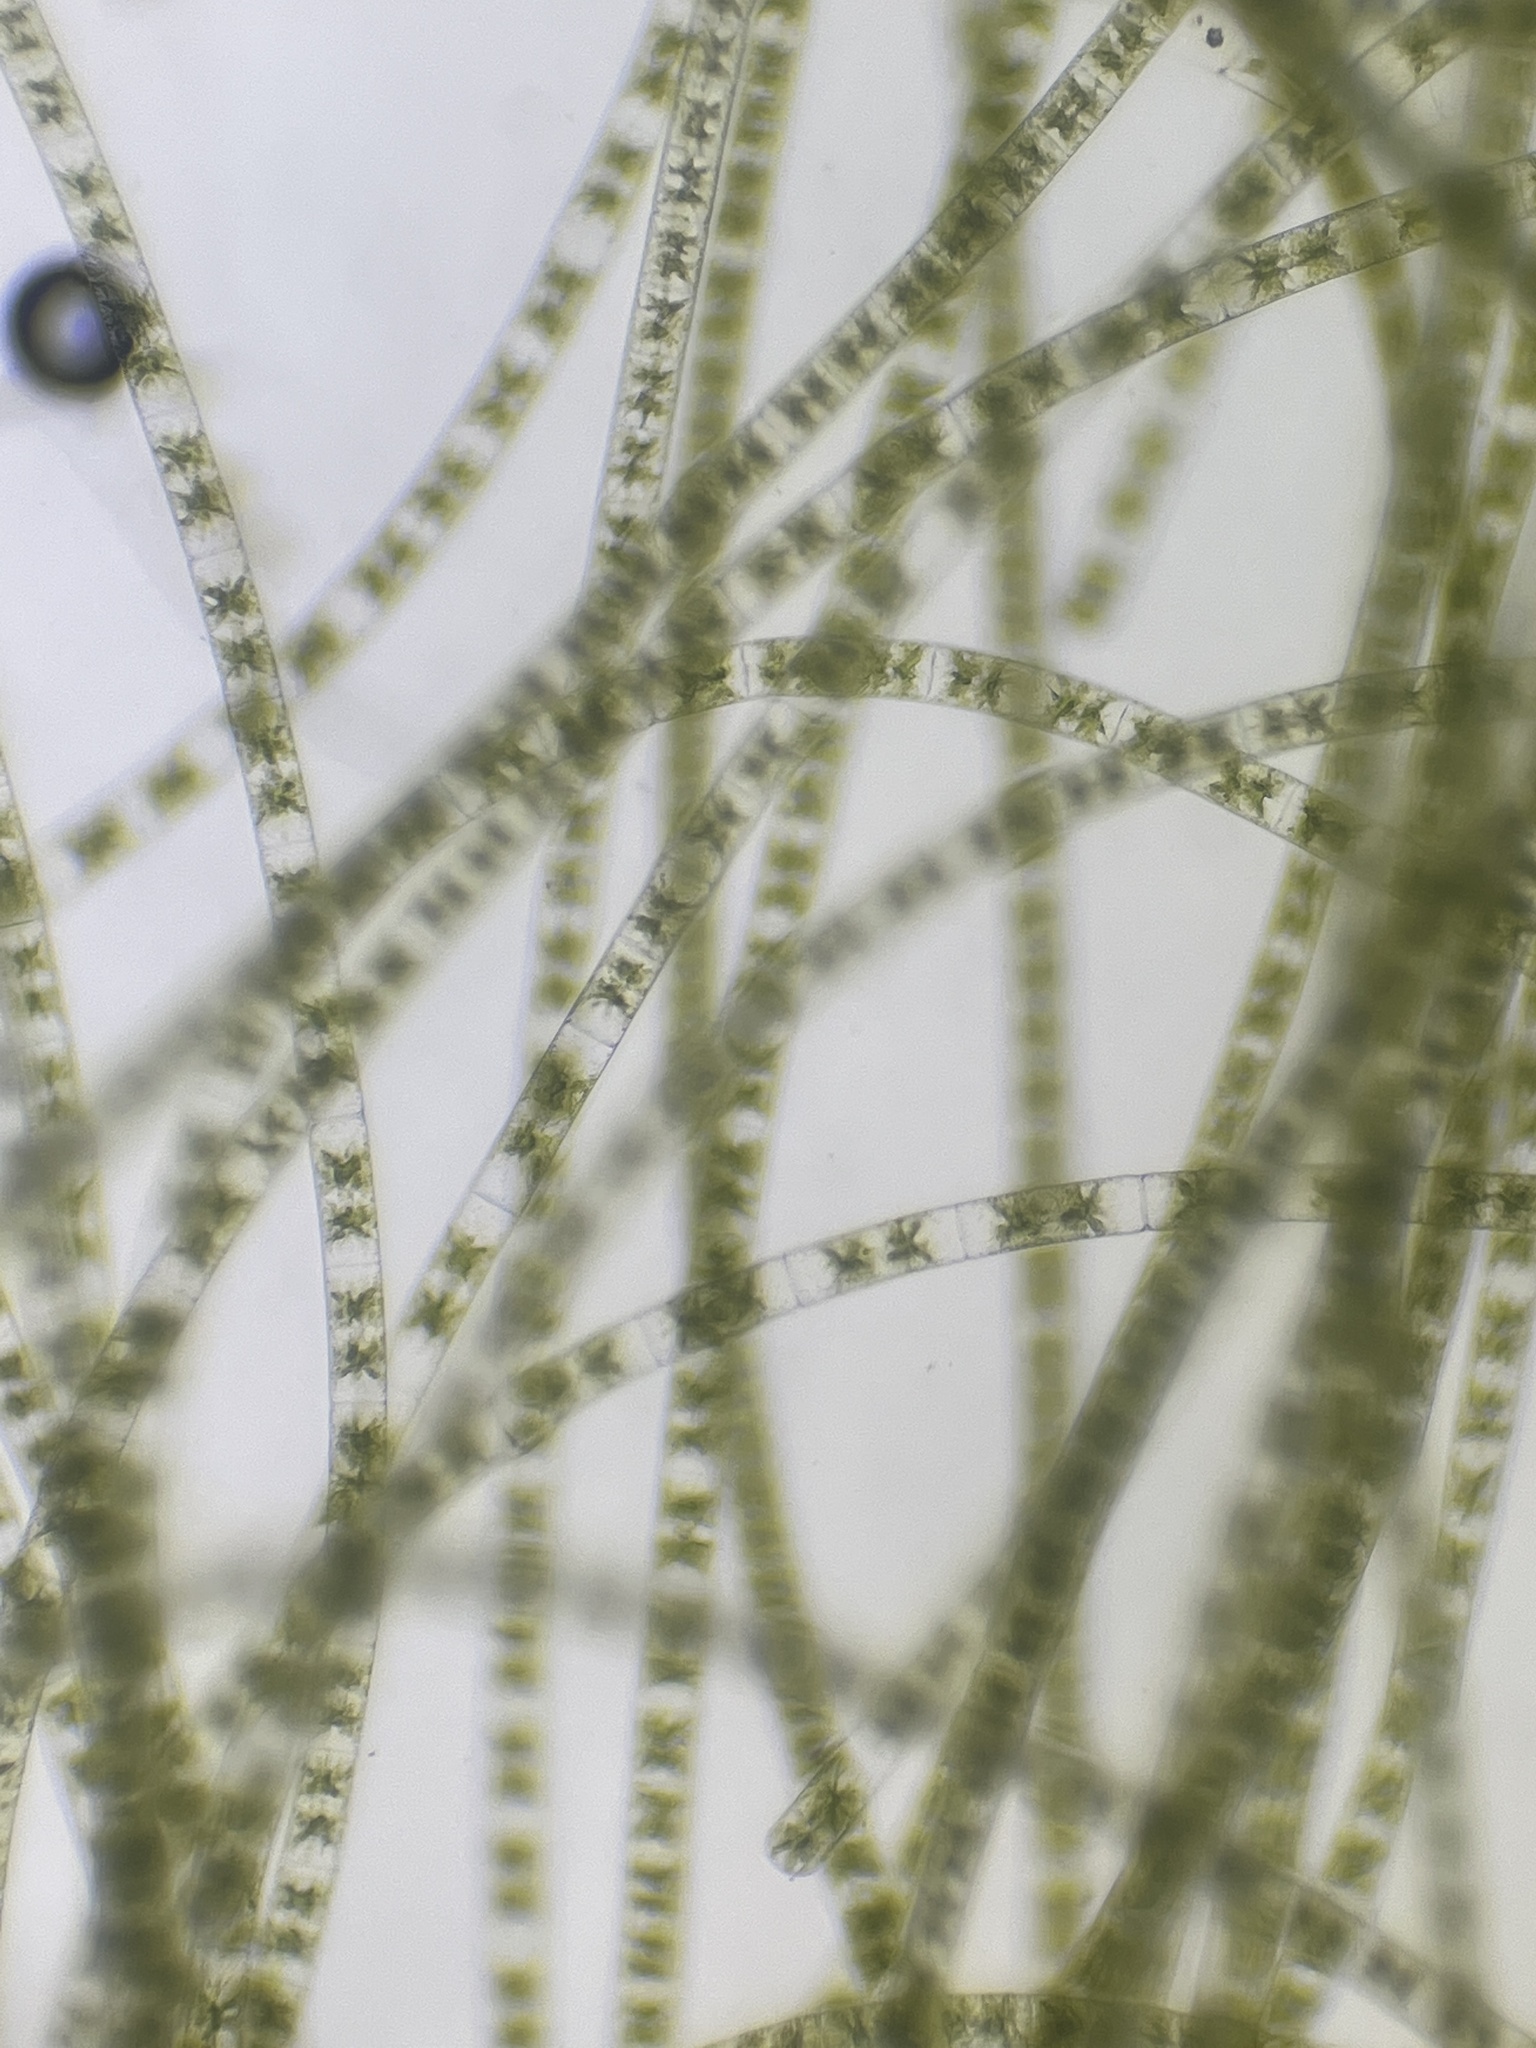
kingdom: Plantae
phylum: Charophyta
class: Zygnematophyceae
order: Zygnematales
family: Zygnemataceae
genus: Zygnema
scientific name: Zygnema
